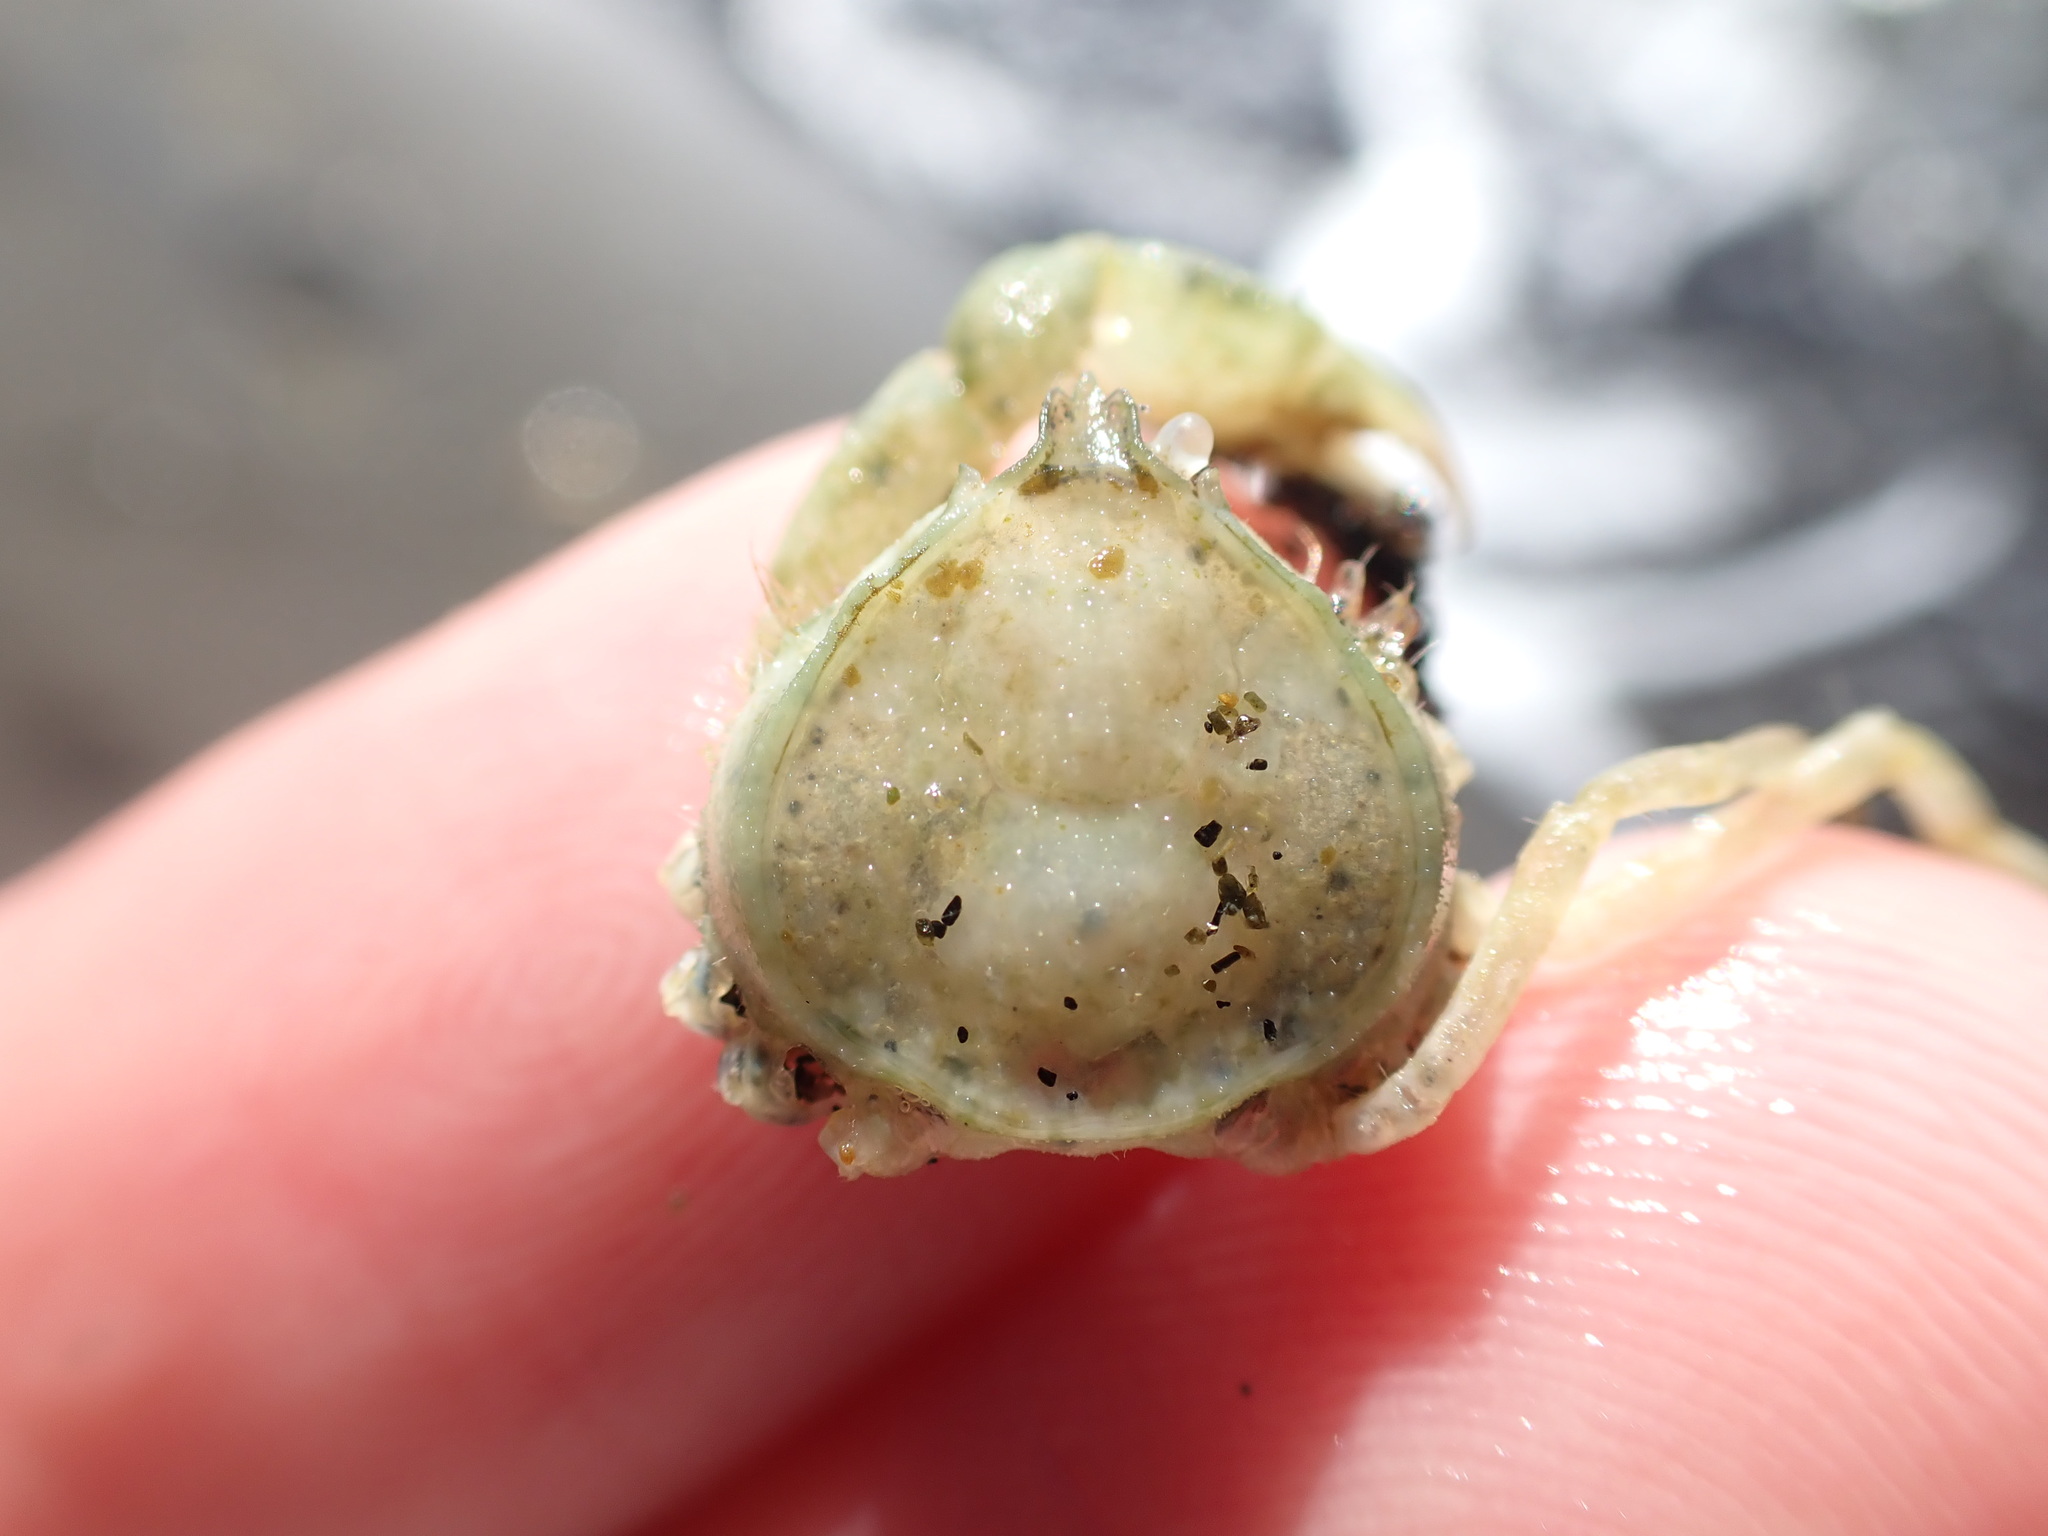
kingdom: Animalia
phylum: Arthropoda
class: Malacostraca
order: Decapoda
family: Hymenosomatidae
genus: Halicarcinus
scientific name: Halicarcinus whitei
